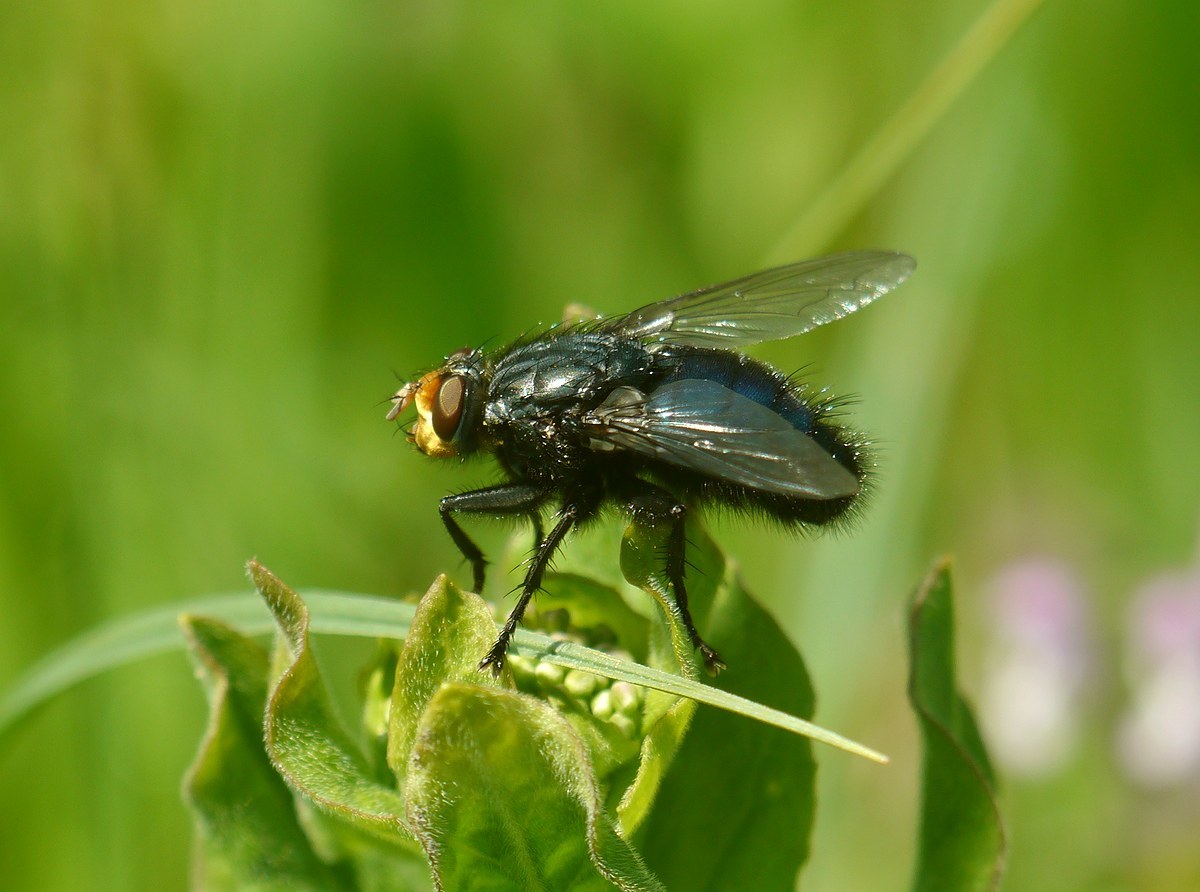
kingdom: Animalia
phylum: Arthropoda
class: Insecta
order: Diptera
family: Calliphoridae
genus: Cynomya
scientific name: Cynomya mortuorum
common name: Bluebottle blow fly
